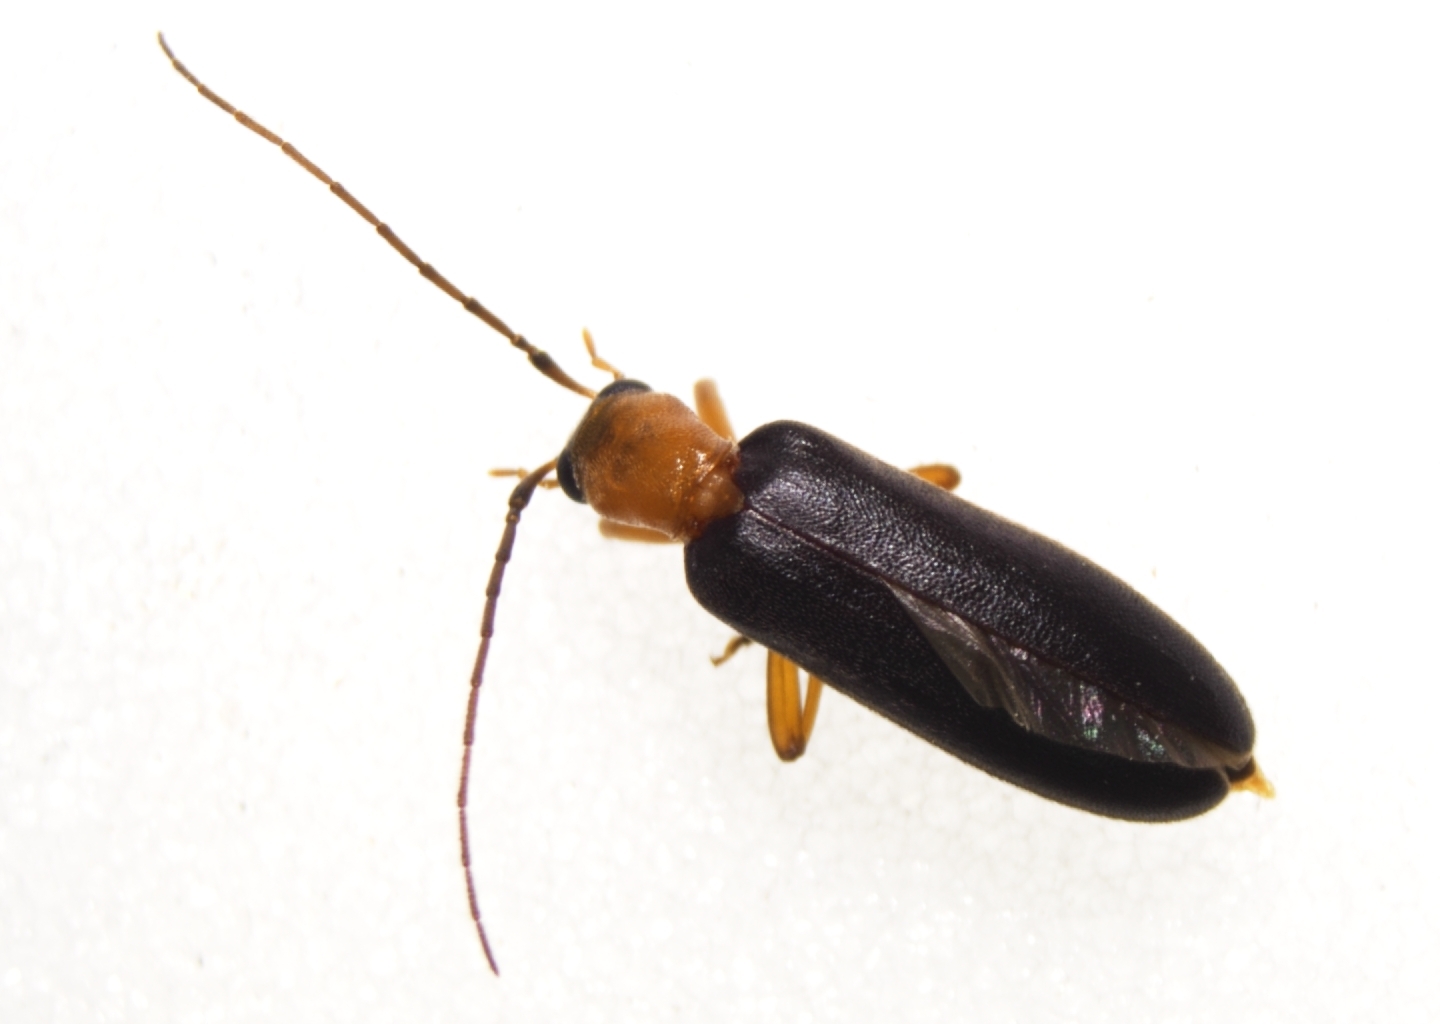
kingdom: Animalia
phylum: Arthropoda
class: Insecta
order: Coleoptera
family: Oedemeridae
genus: Ananca
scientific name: Ananca bicolor
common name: Red-black false blister-beetle
